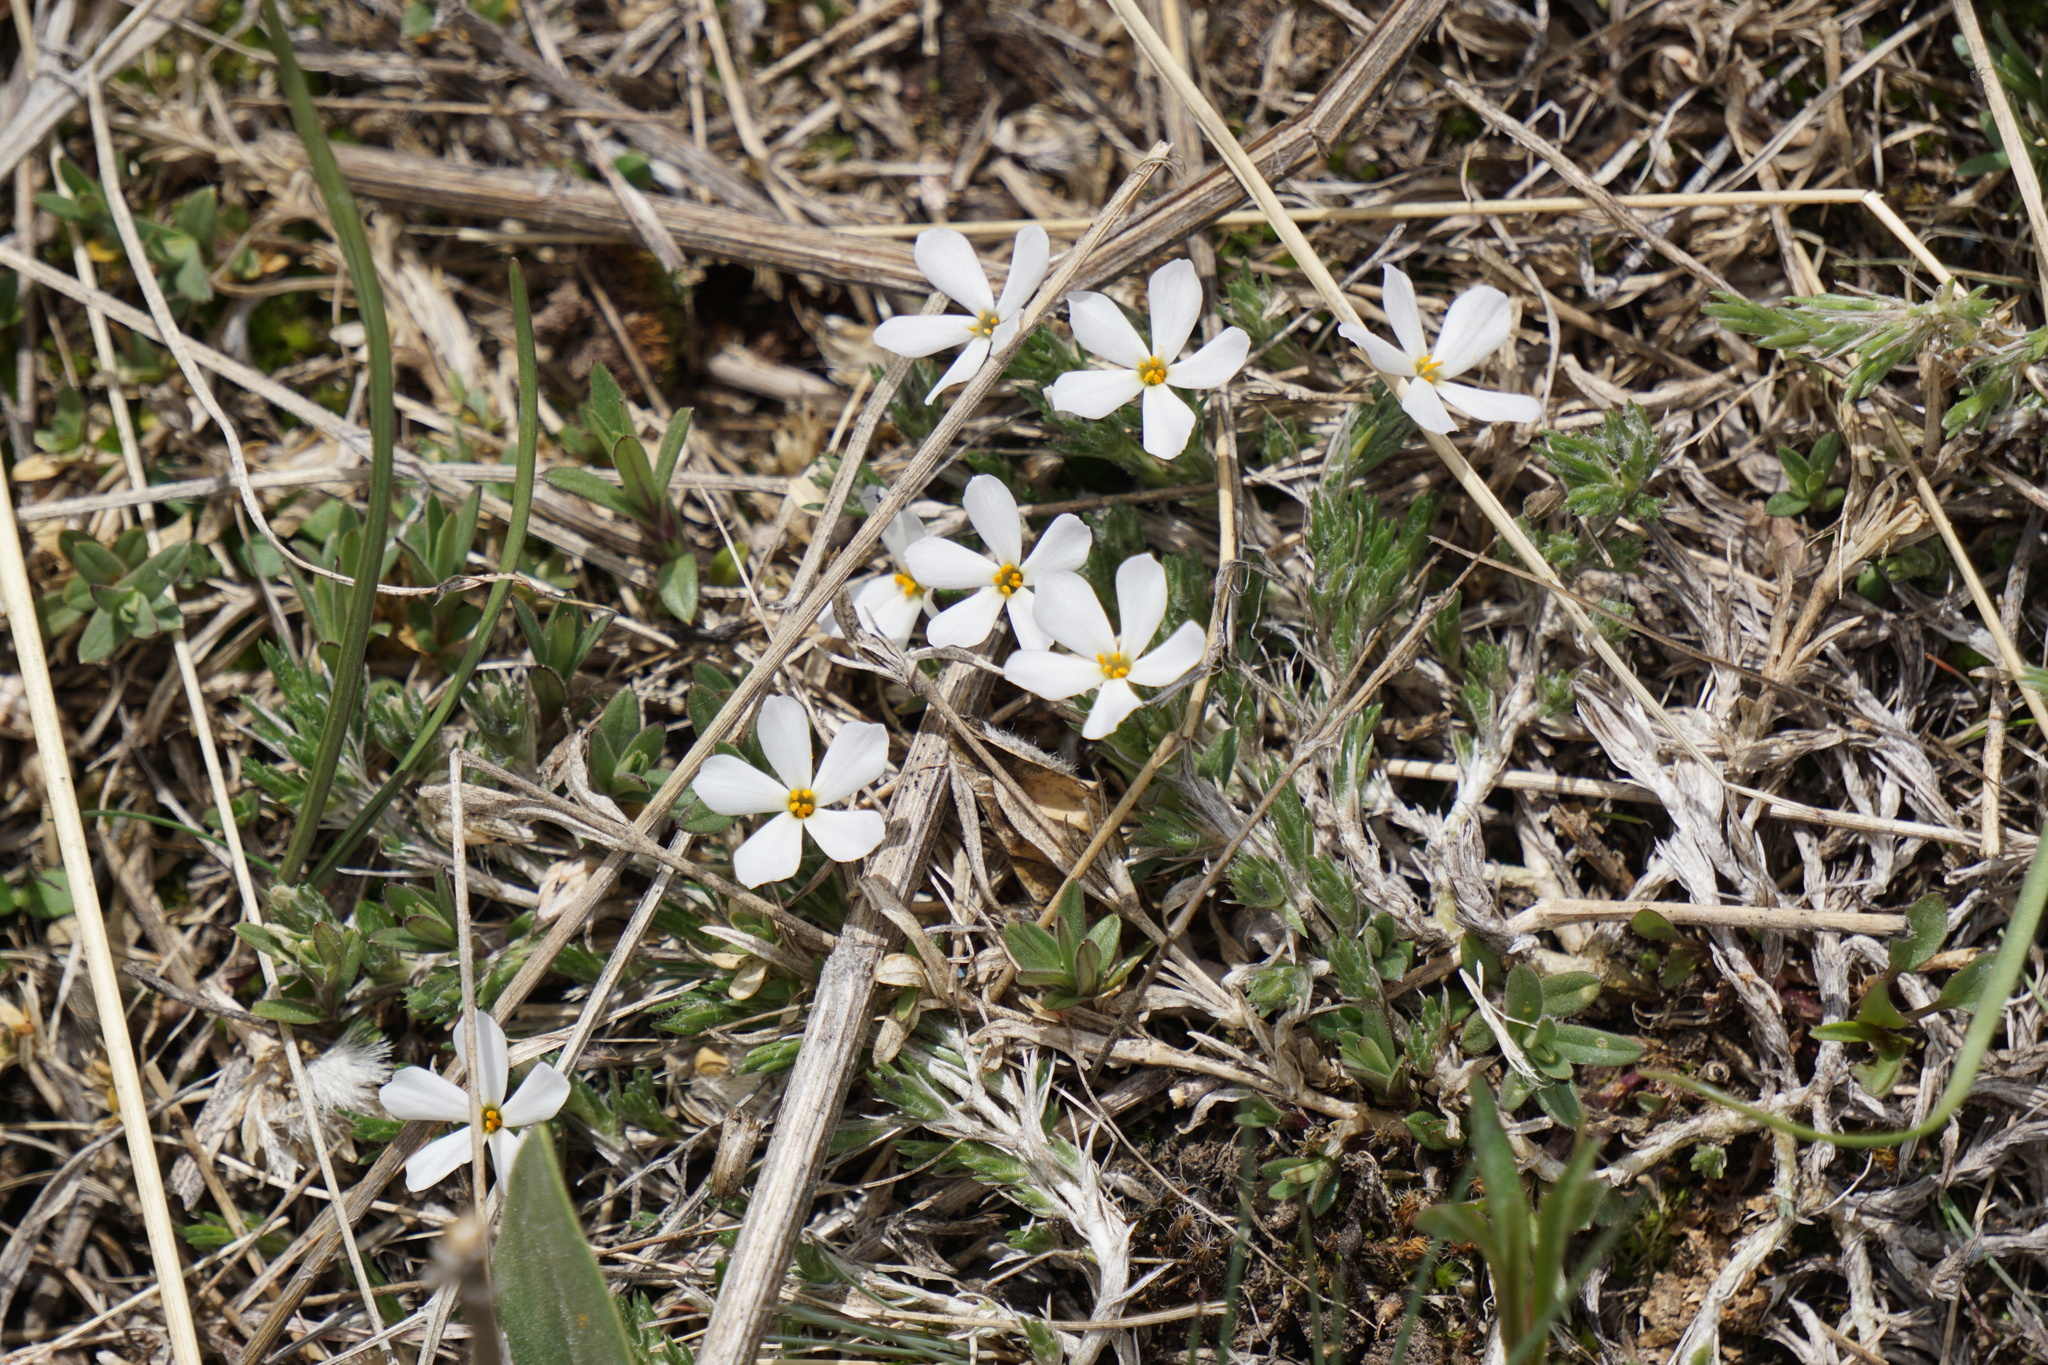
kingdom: Plantae
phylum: Tracheophyta
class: Magnoliopsida
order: Ericales
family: Polemoniaceae
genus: Phlox
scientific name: Phlox hoodii
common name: Moss phlox
